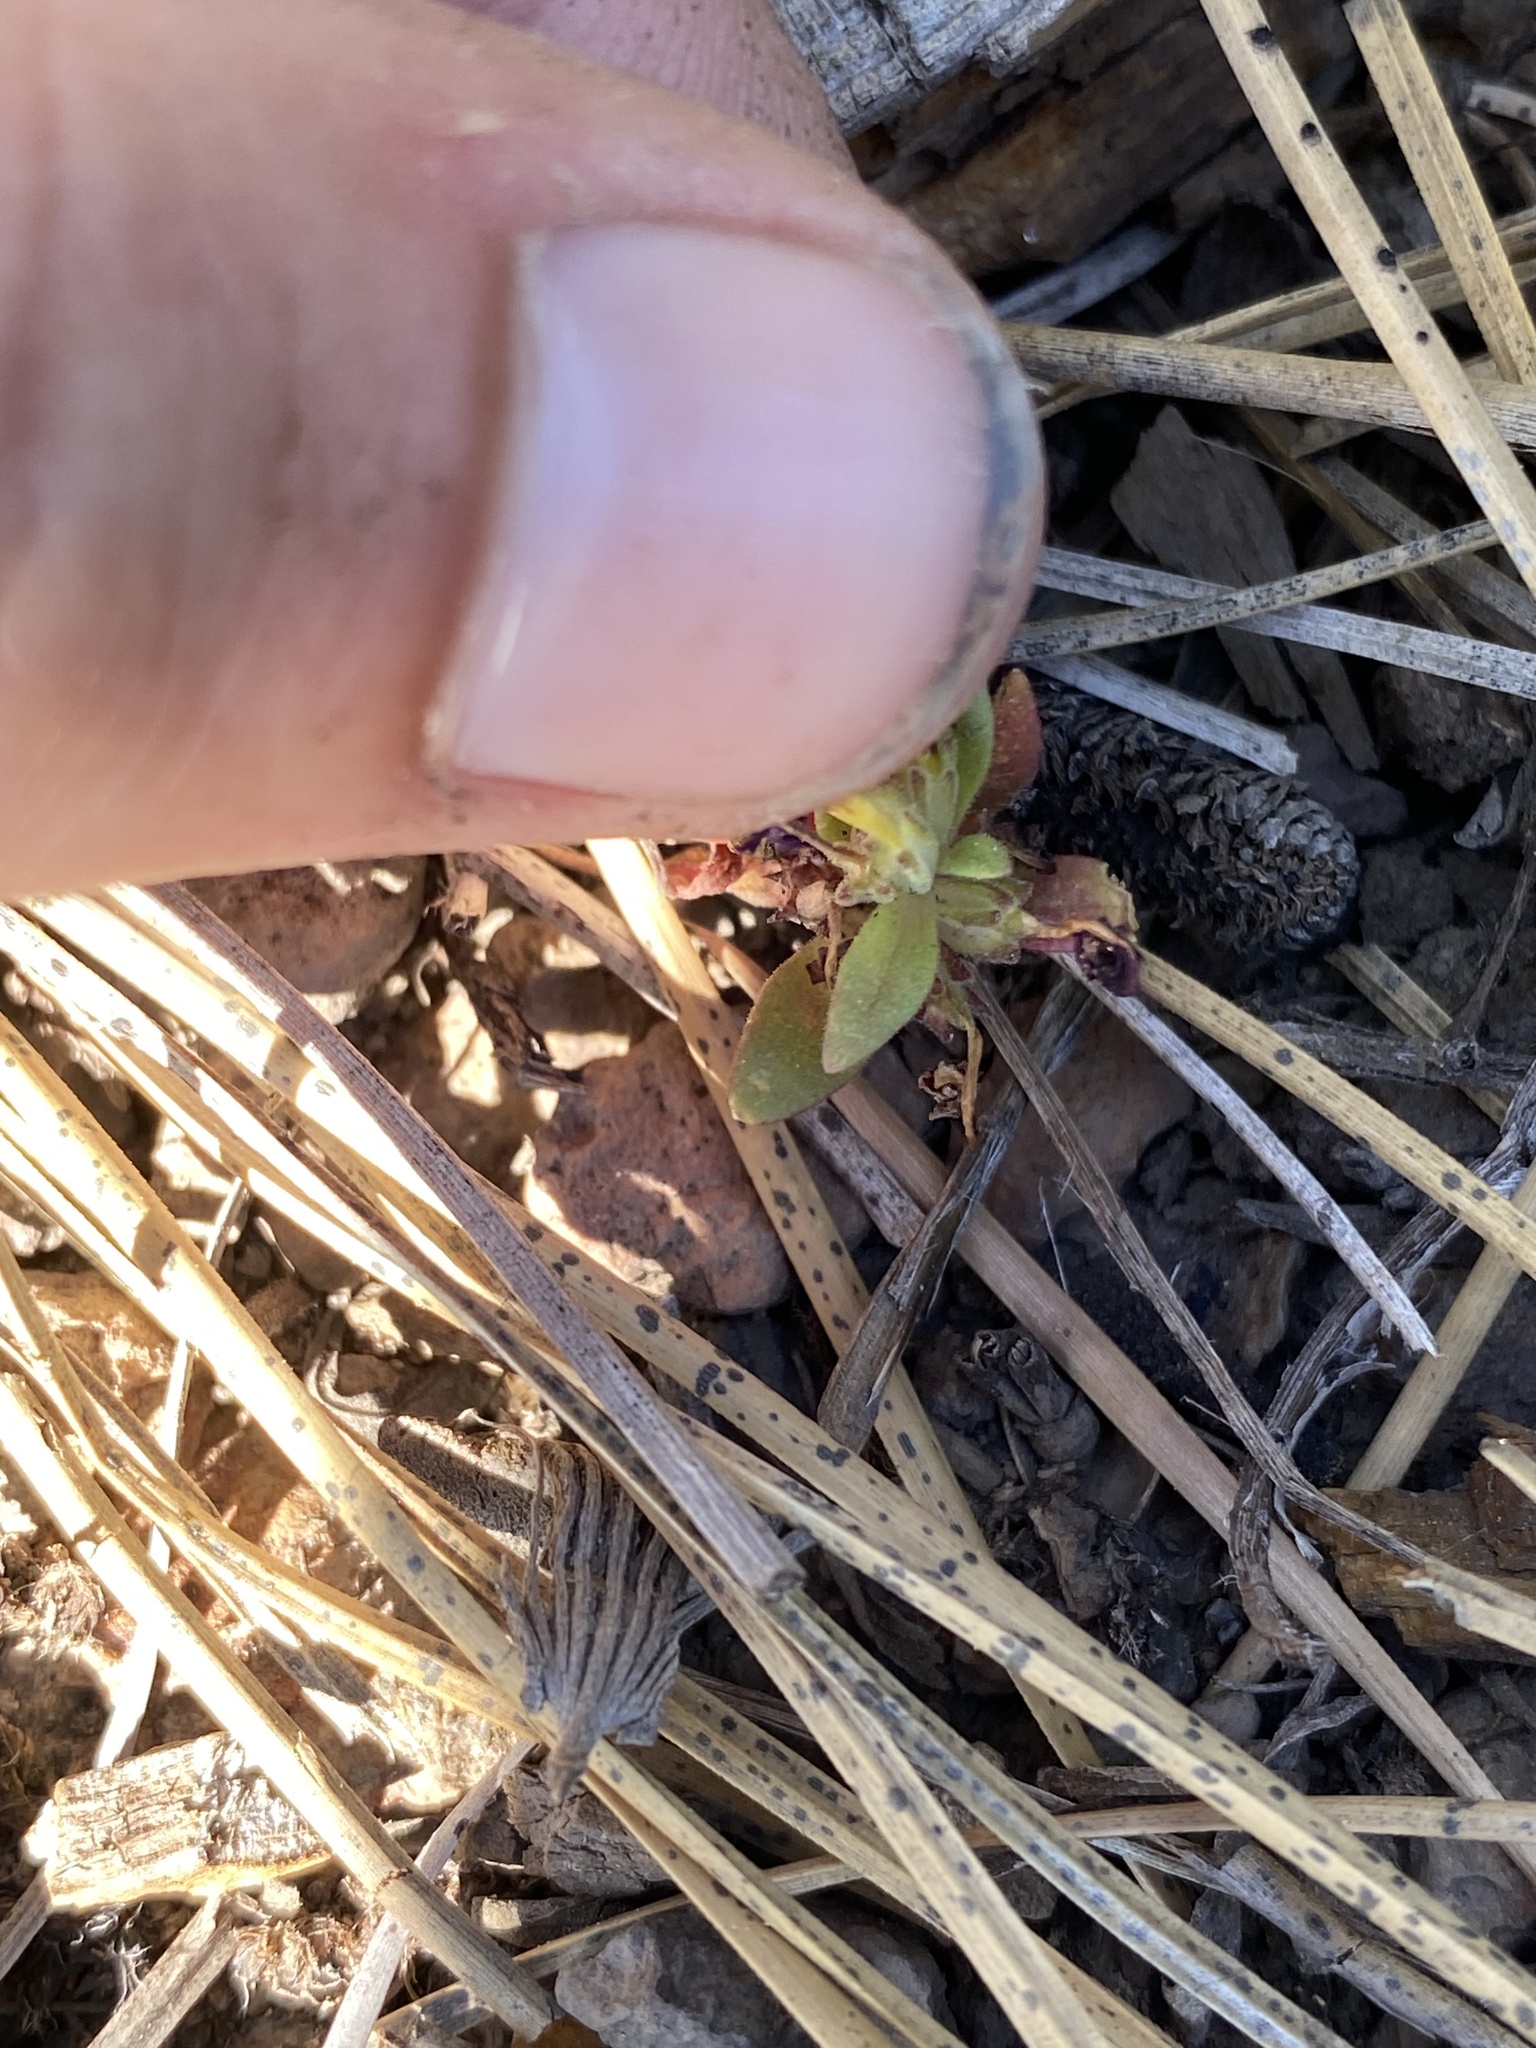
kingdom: Plantae
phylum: Tracheophyta
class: Magnoliopsida
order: Lamiales
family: Phrymaceae
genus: Diplacus
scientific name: Diplacus nanus
